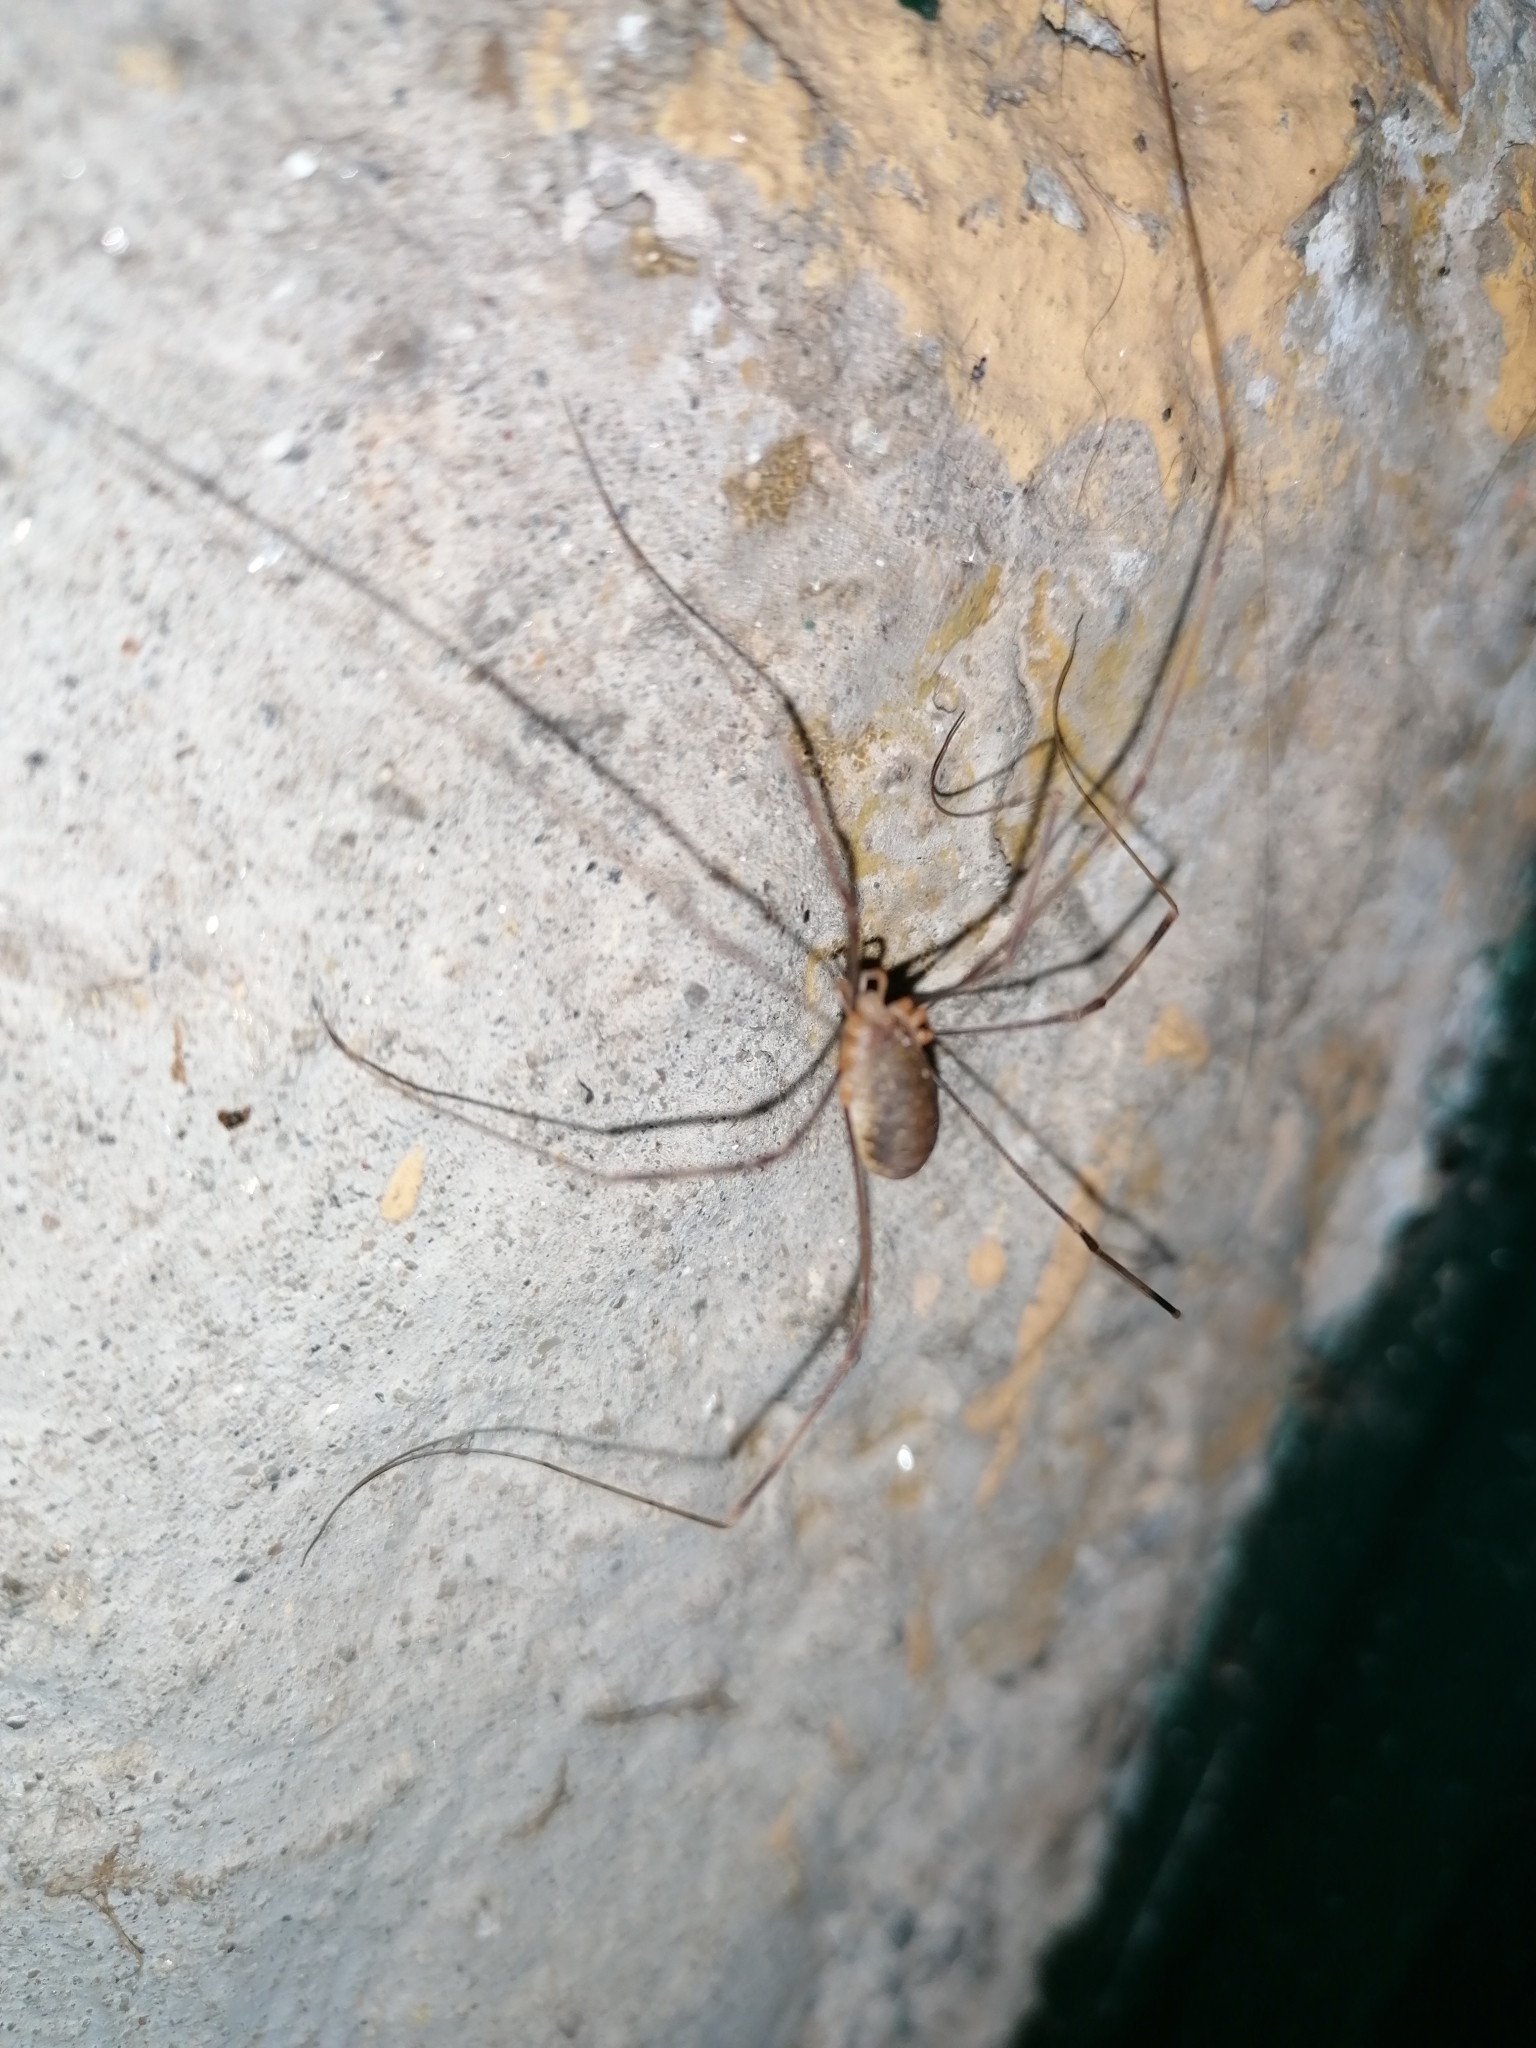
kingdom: Animalia
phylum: Arthropoda
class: Arachnida
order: Opiliones
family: Phalangiidae
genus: Opilio
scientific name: Opilio canestrinii
